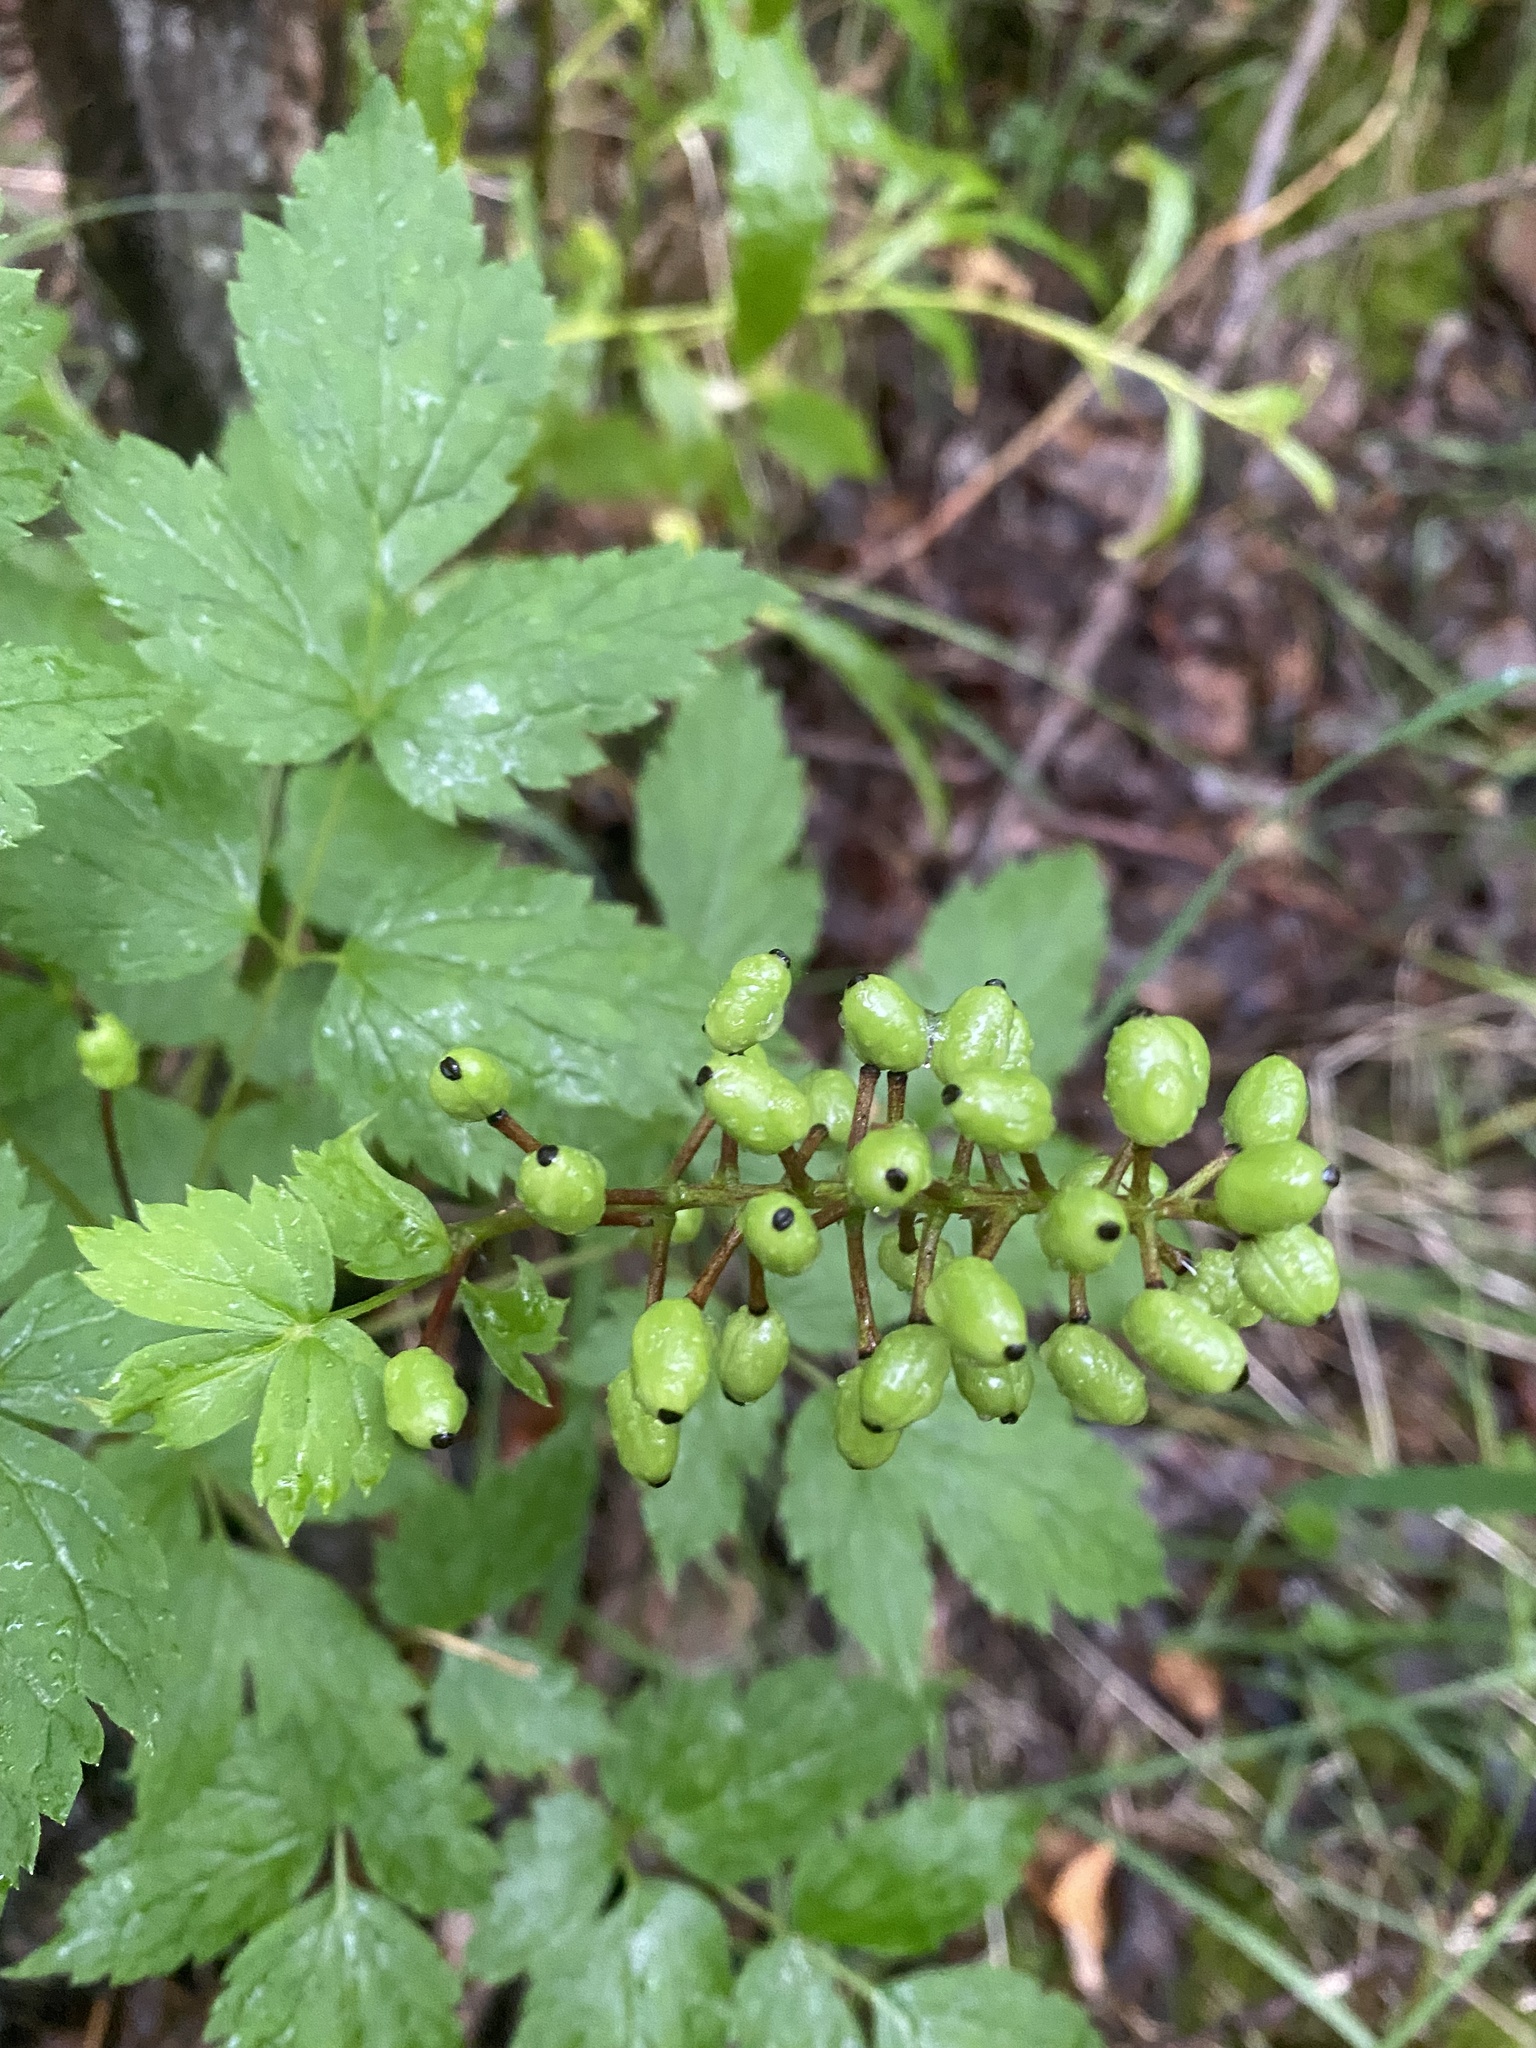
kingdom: Plantae
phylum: Tracheophyta
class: Magnoliopsida
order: Ranunculales
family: Ranunculaceae
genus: Actaea
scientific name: Actaea erythrocarpa
